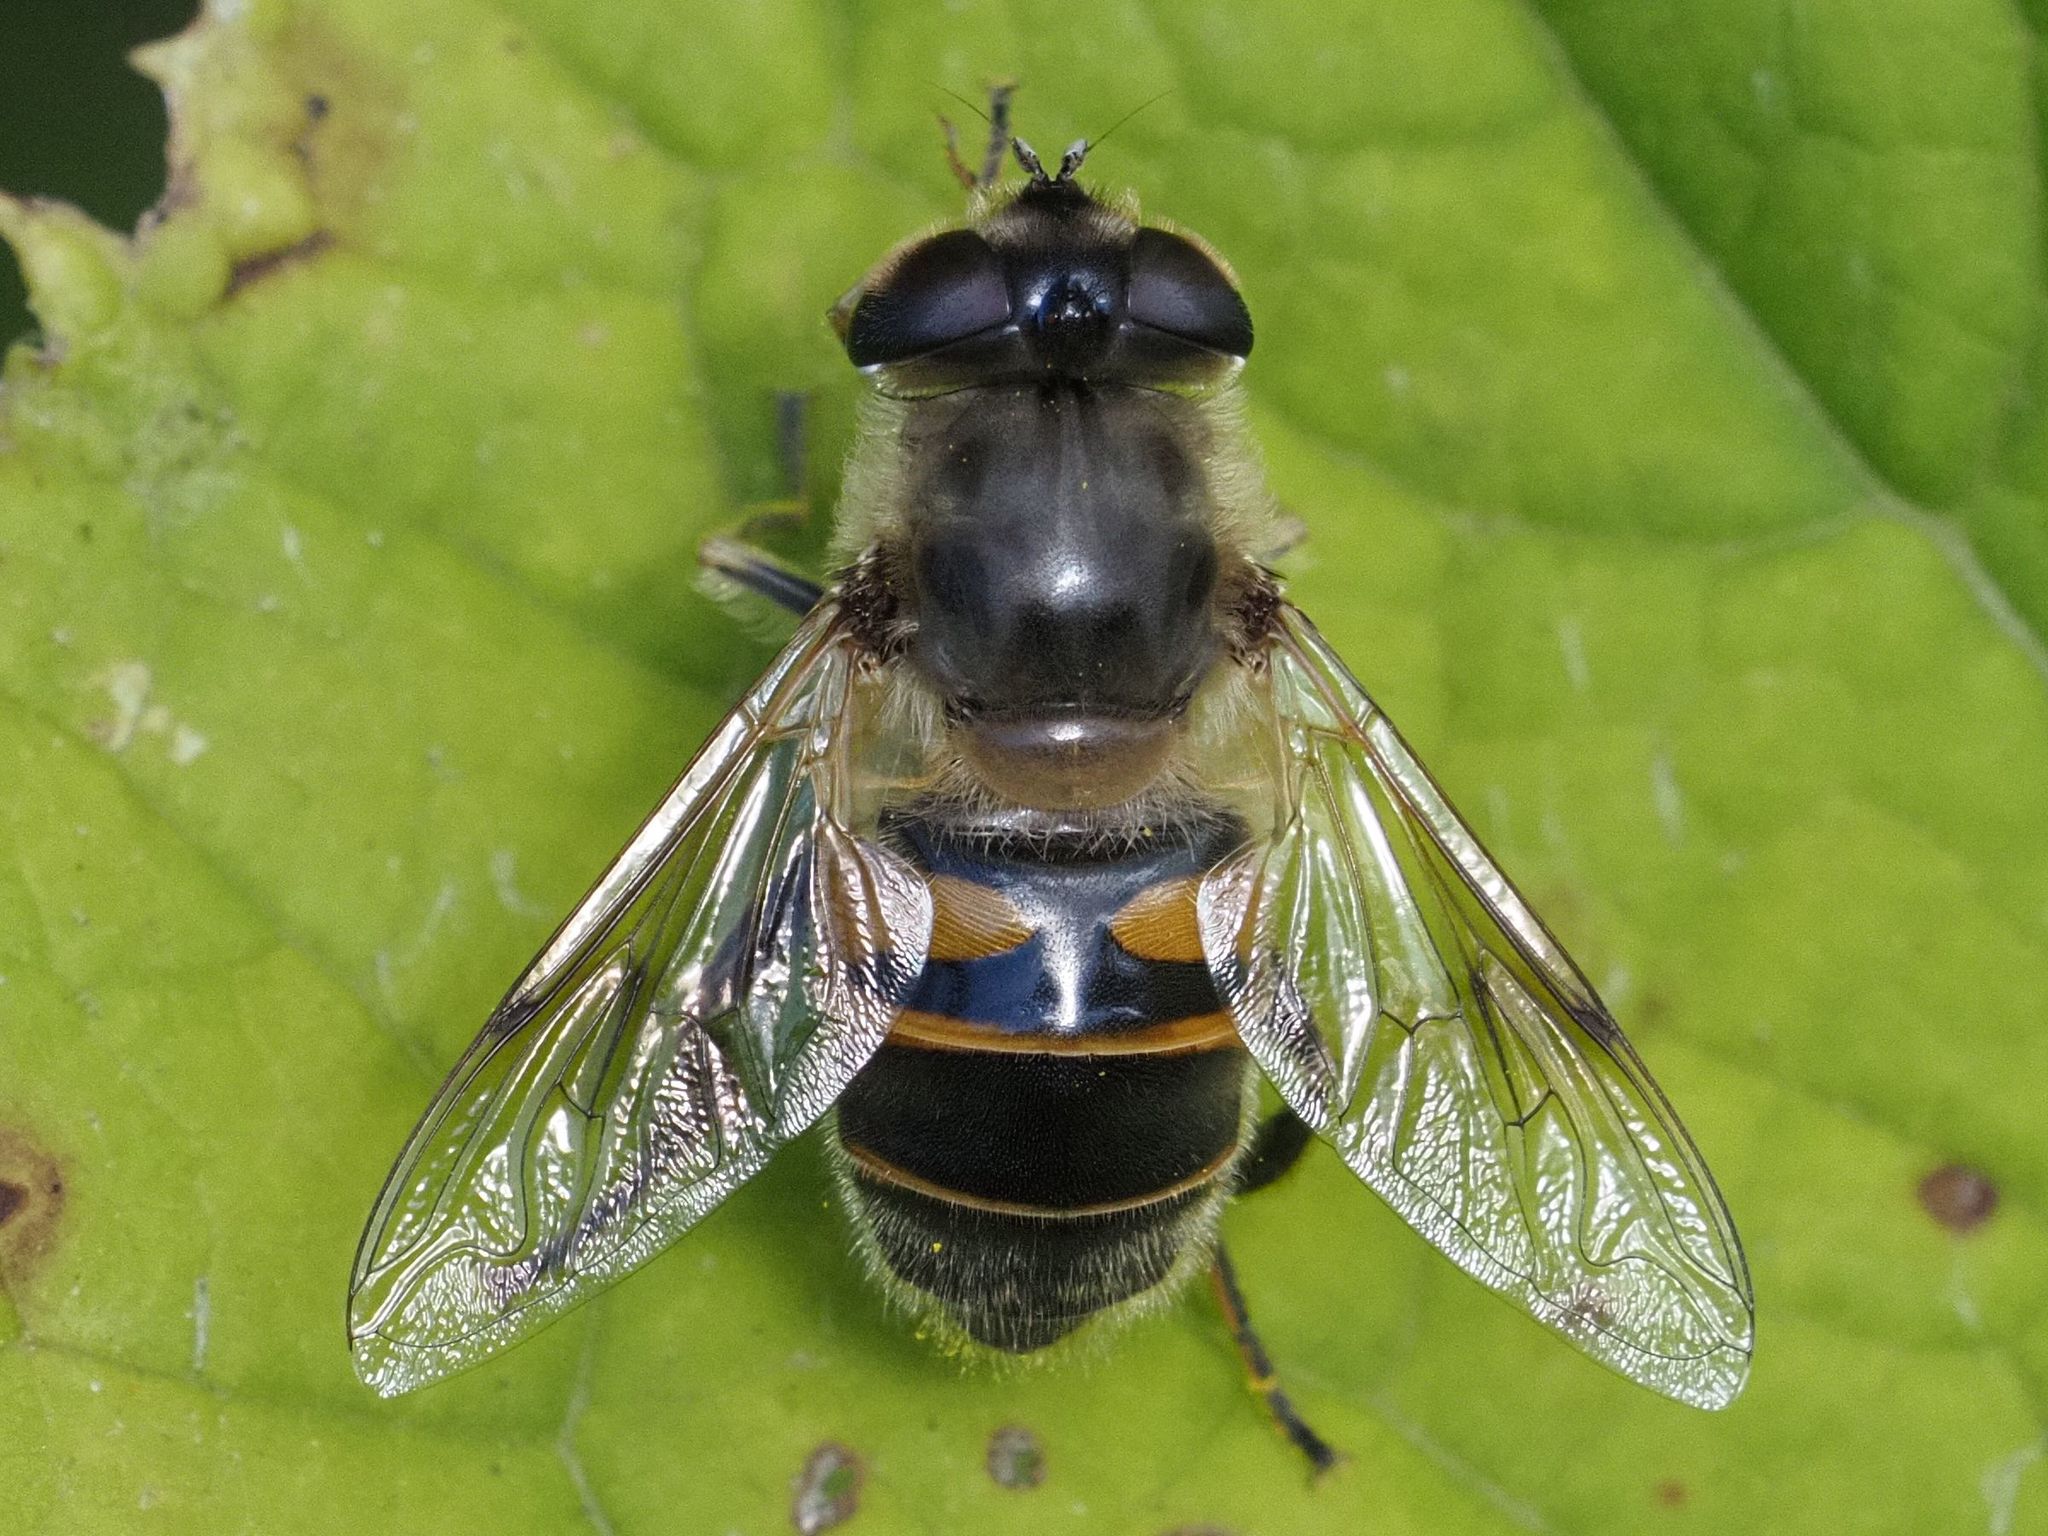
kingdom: Animalia
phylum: Arthropoda
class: Insecta
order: Diptera
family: Syrphidae
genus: Eristalis
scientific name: Eristalis tenax
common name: Drone fly
